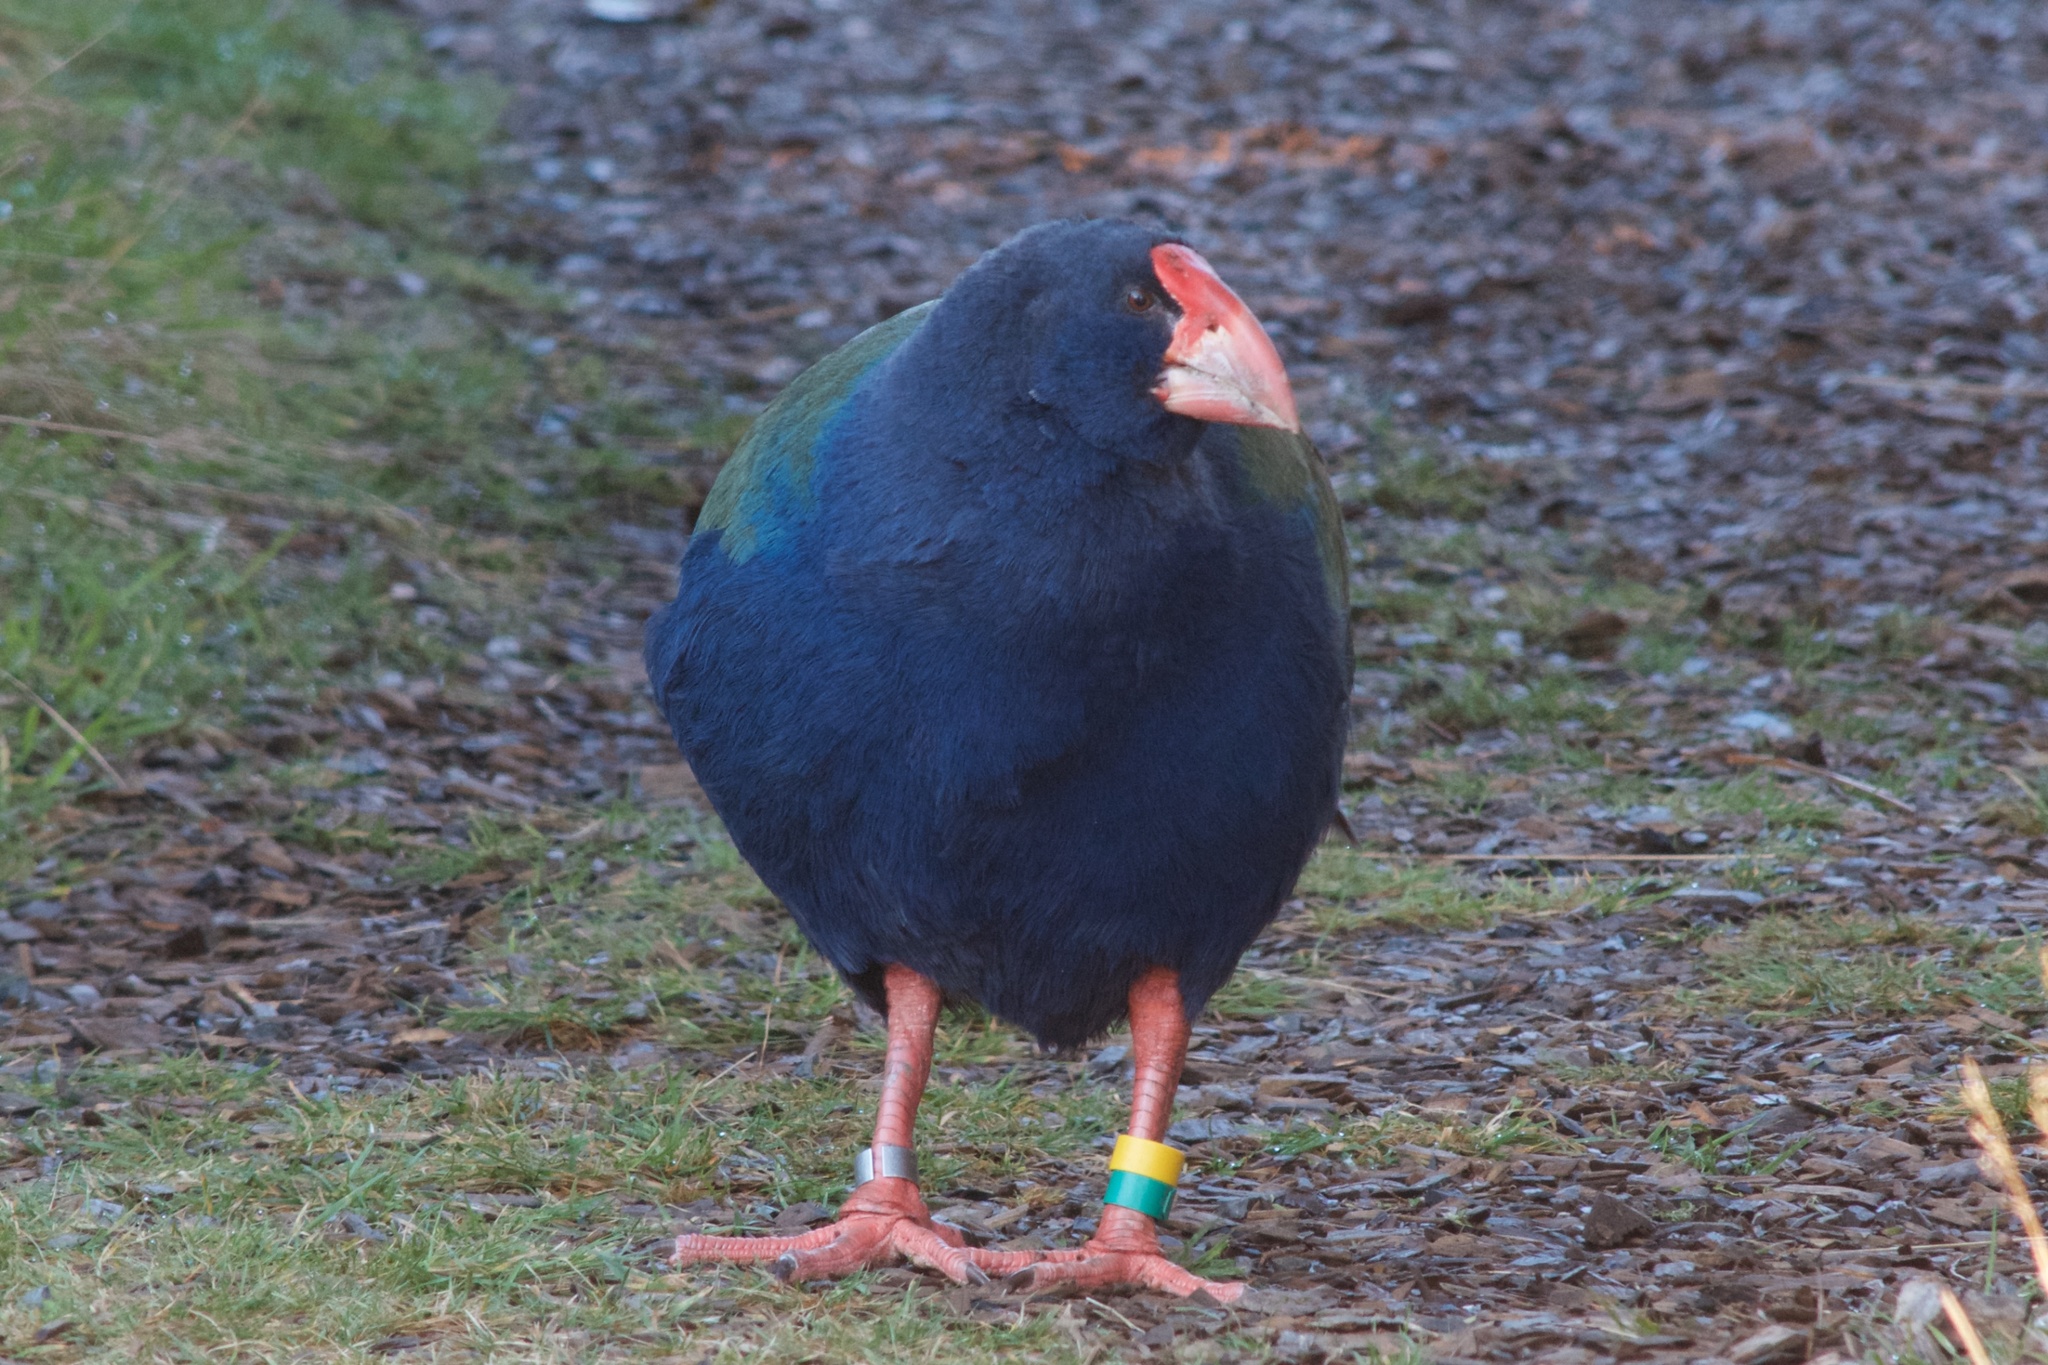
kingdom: Animalia
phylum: Chordata
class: Aves
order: Gruiformes
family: Rallidae
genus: Porphyrio
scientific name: Porphyrio hochstetteri
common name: South island takahe
